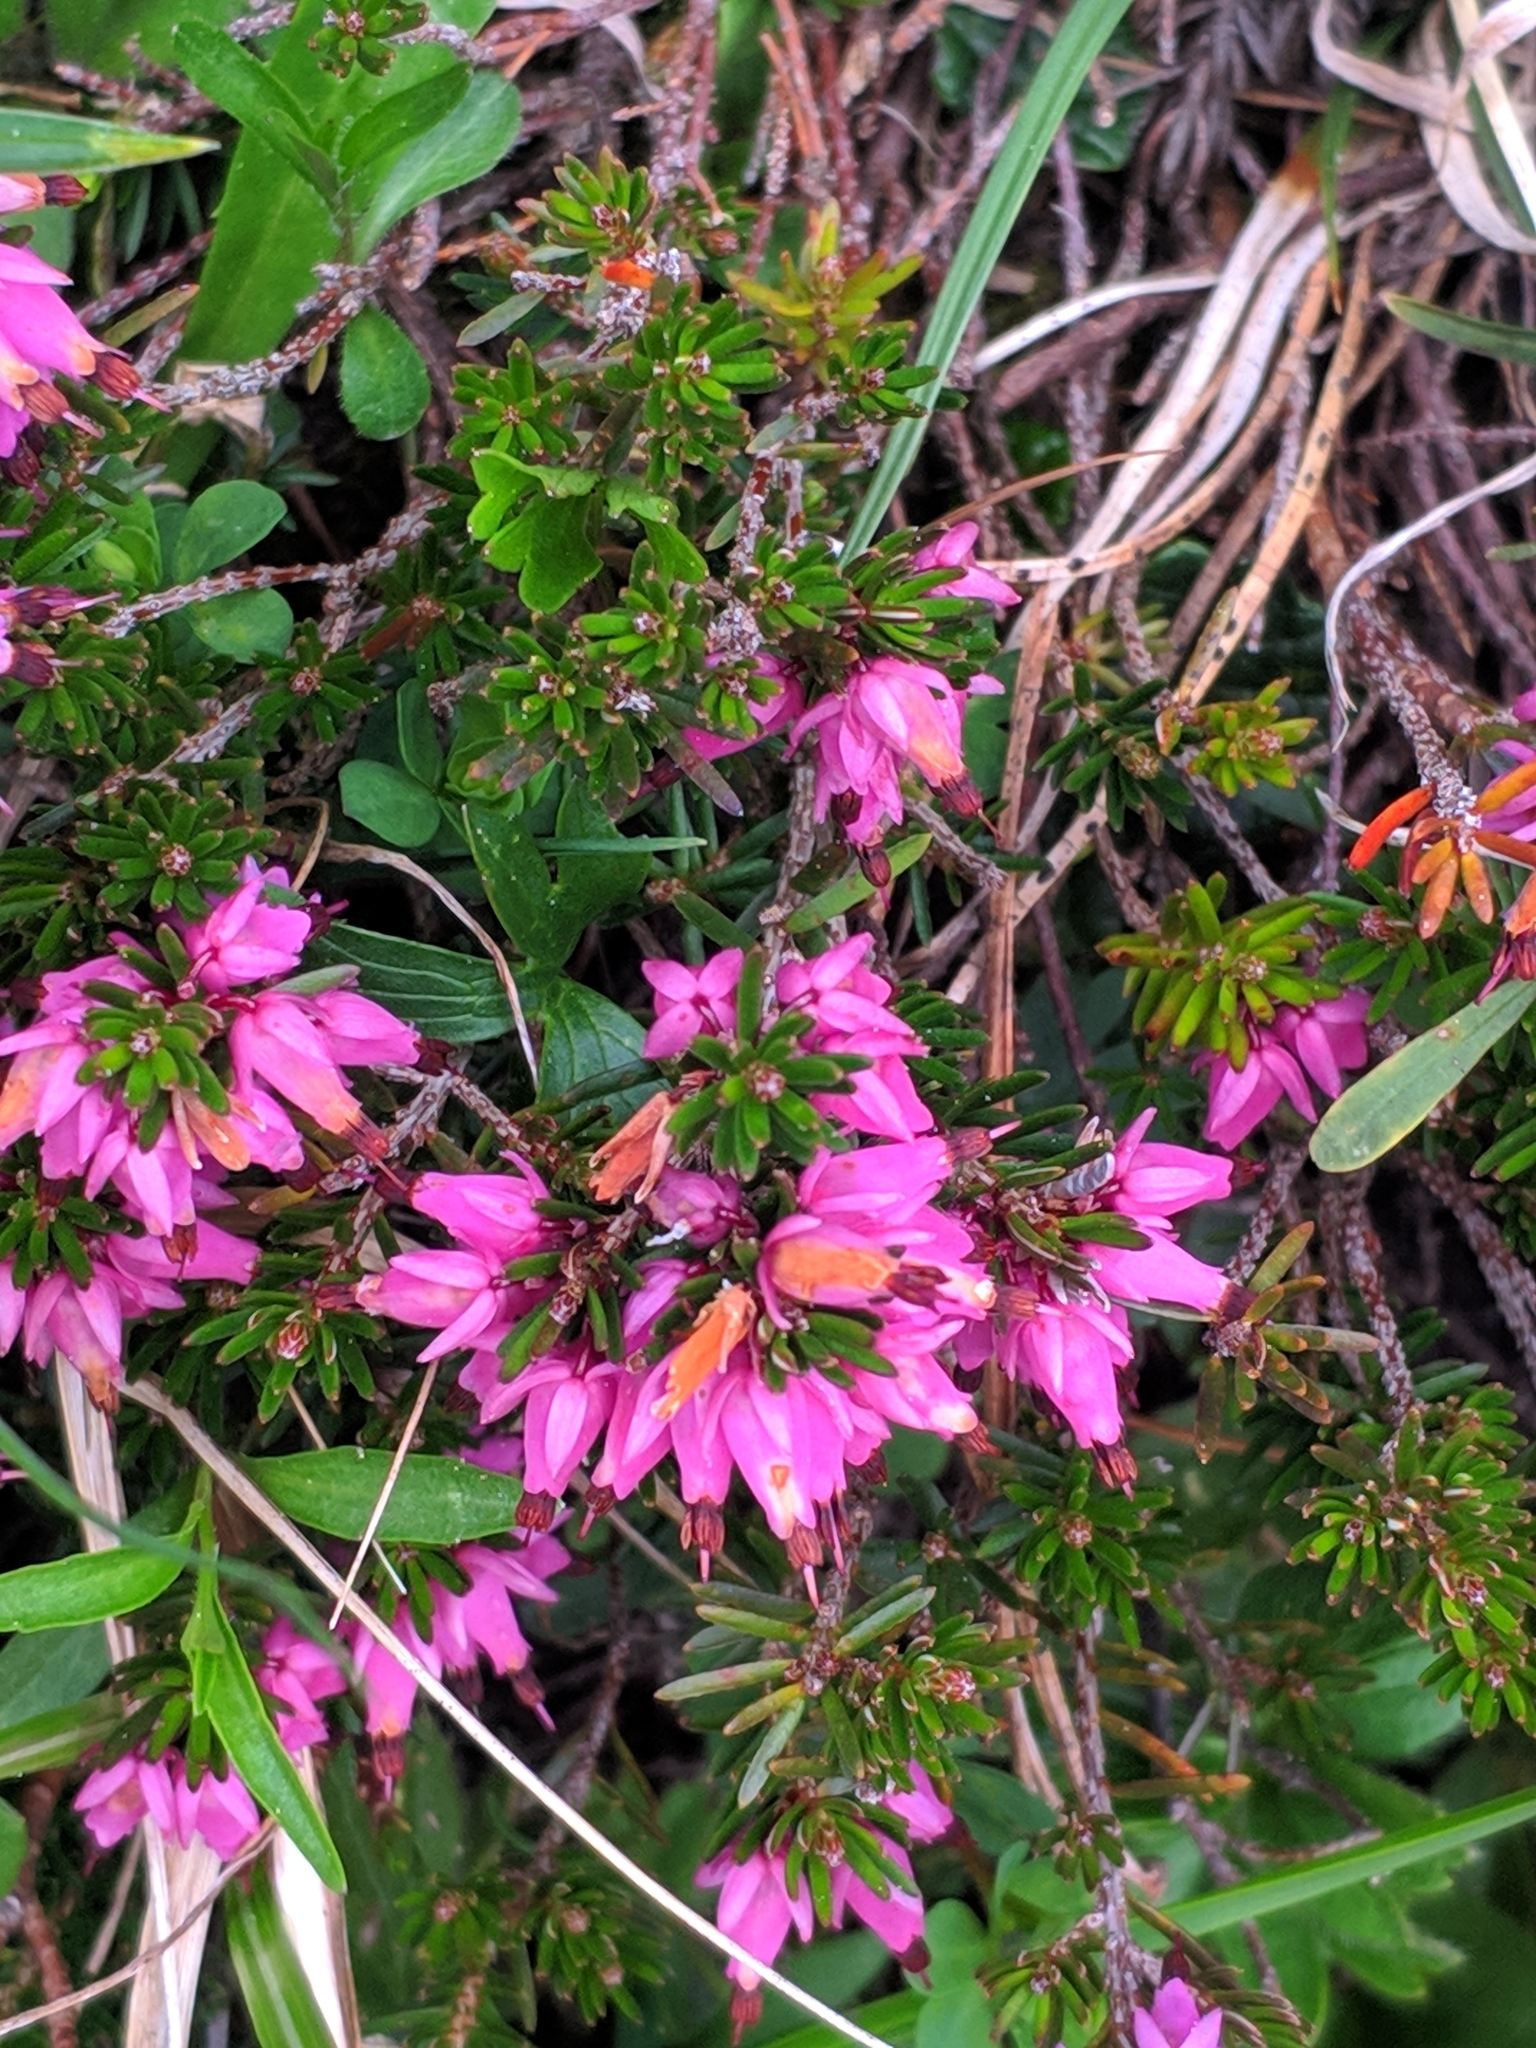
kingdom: Plantae
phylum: Tracheophyta
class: Magnoliopsida
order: Ericales
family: Ericaceae
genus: Erica
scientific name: Erica carnea
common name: Winter heath
